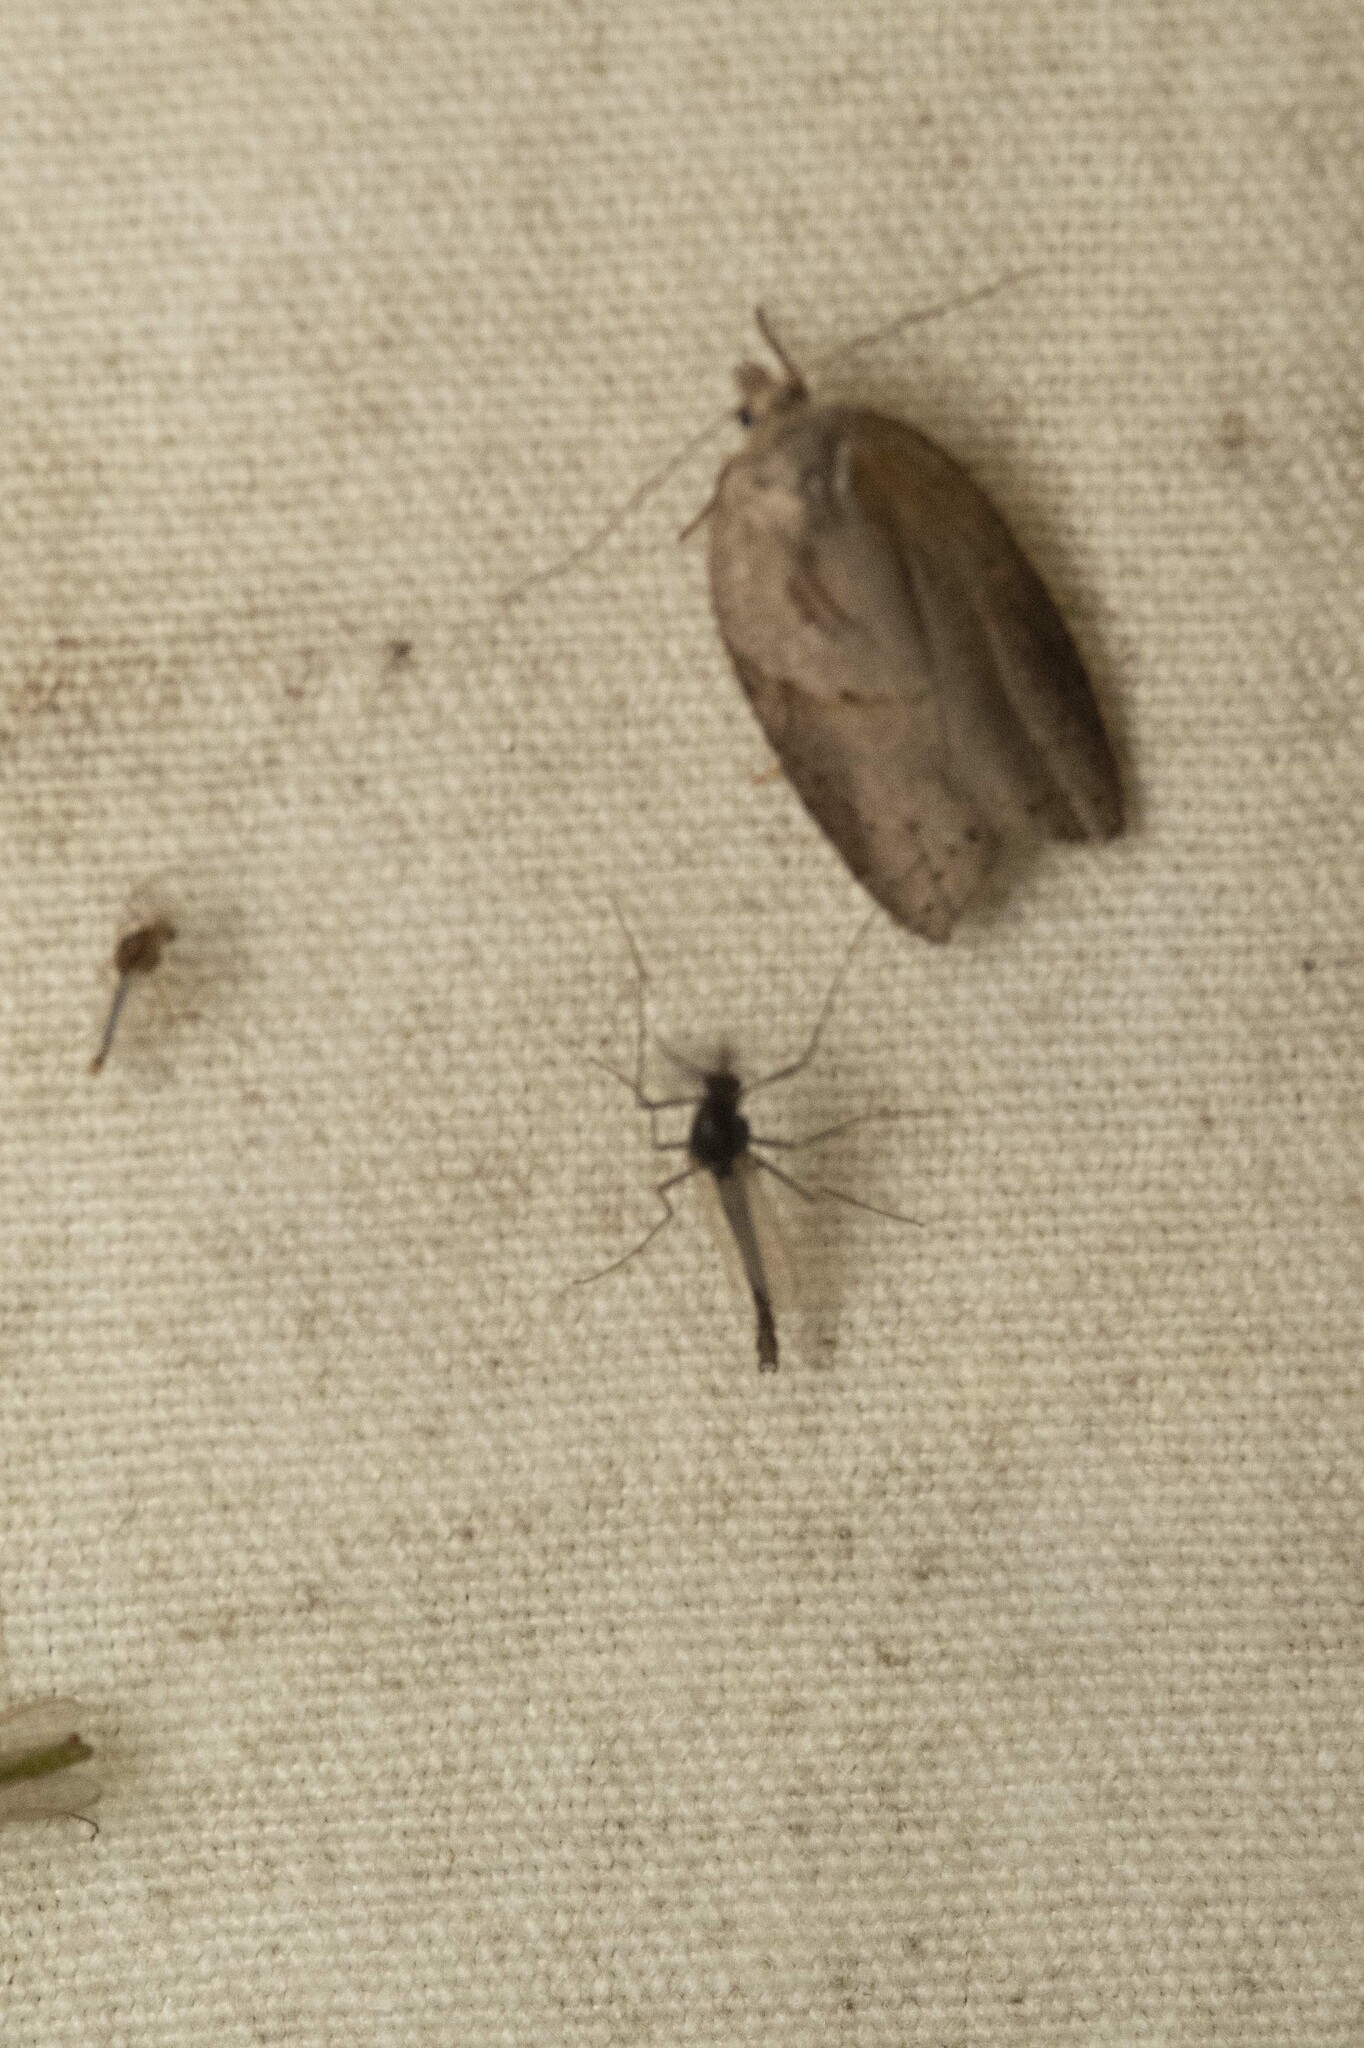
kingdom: Animalia
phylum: Arthropoda
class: Insecta
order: Lepidoptera
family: Tortricidae
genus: Acleris
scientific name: Acleris maculidorsana
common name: Stained-back leafroller moth
